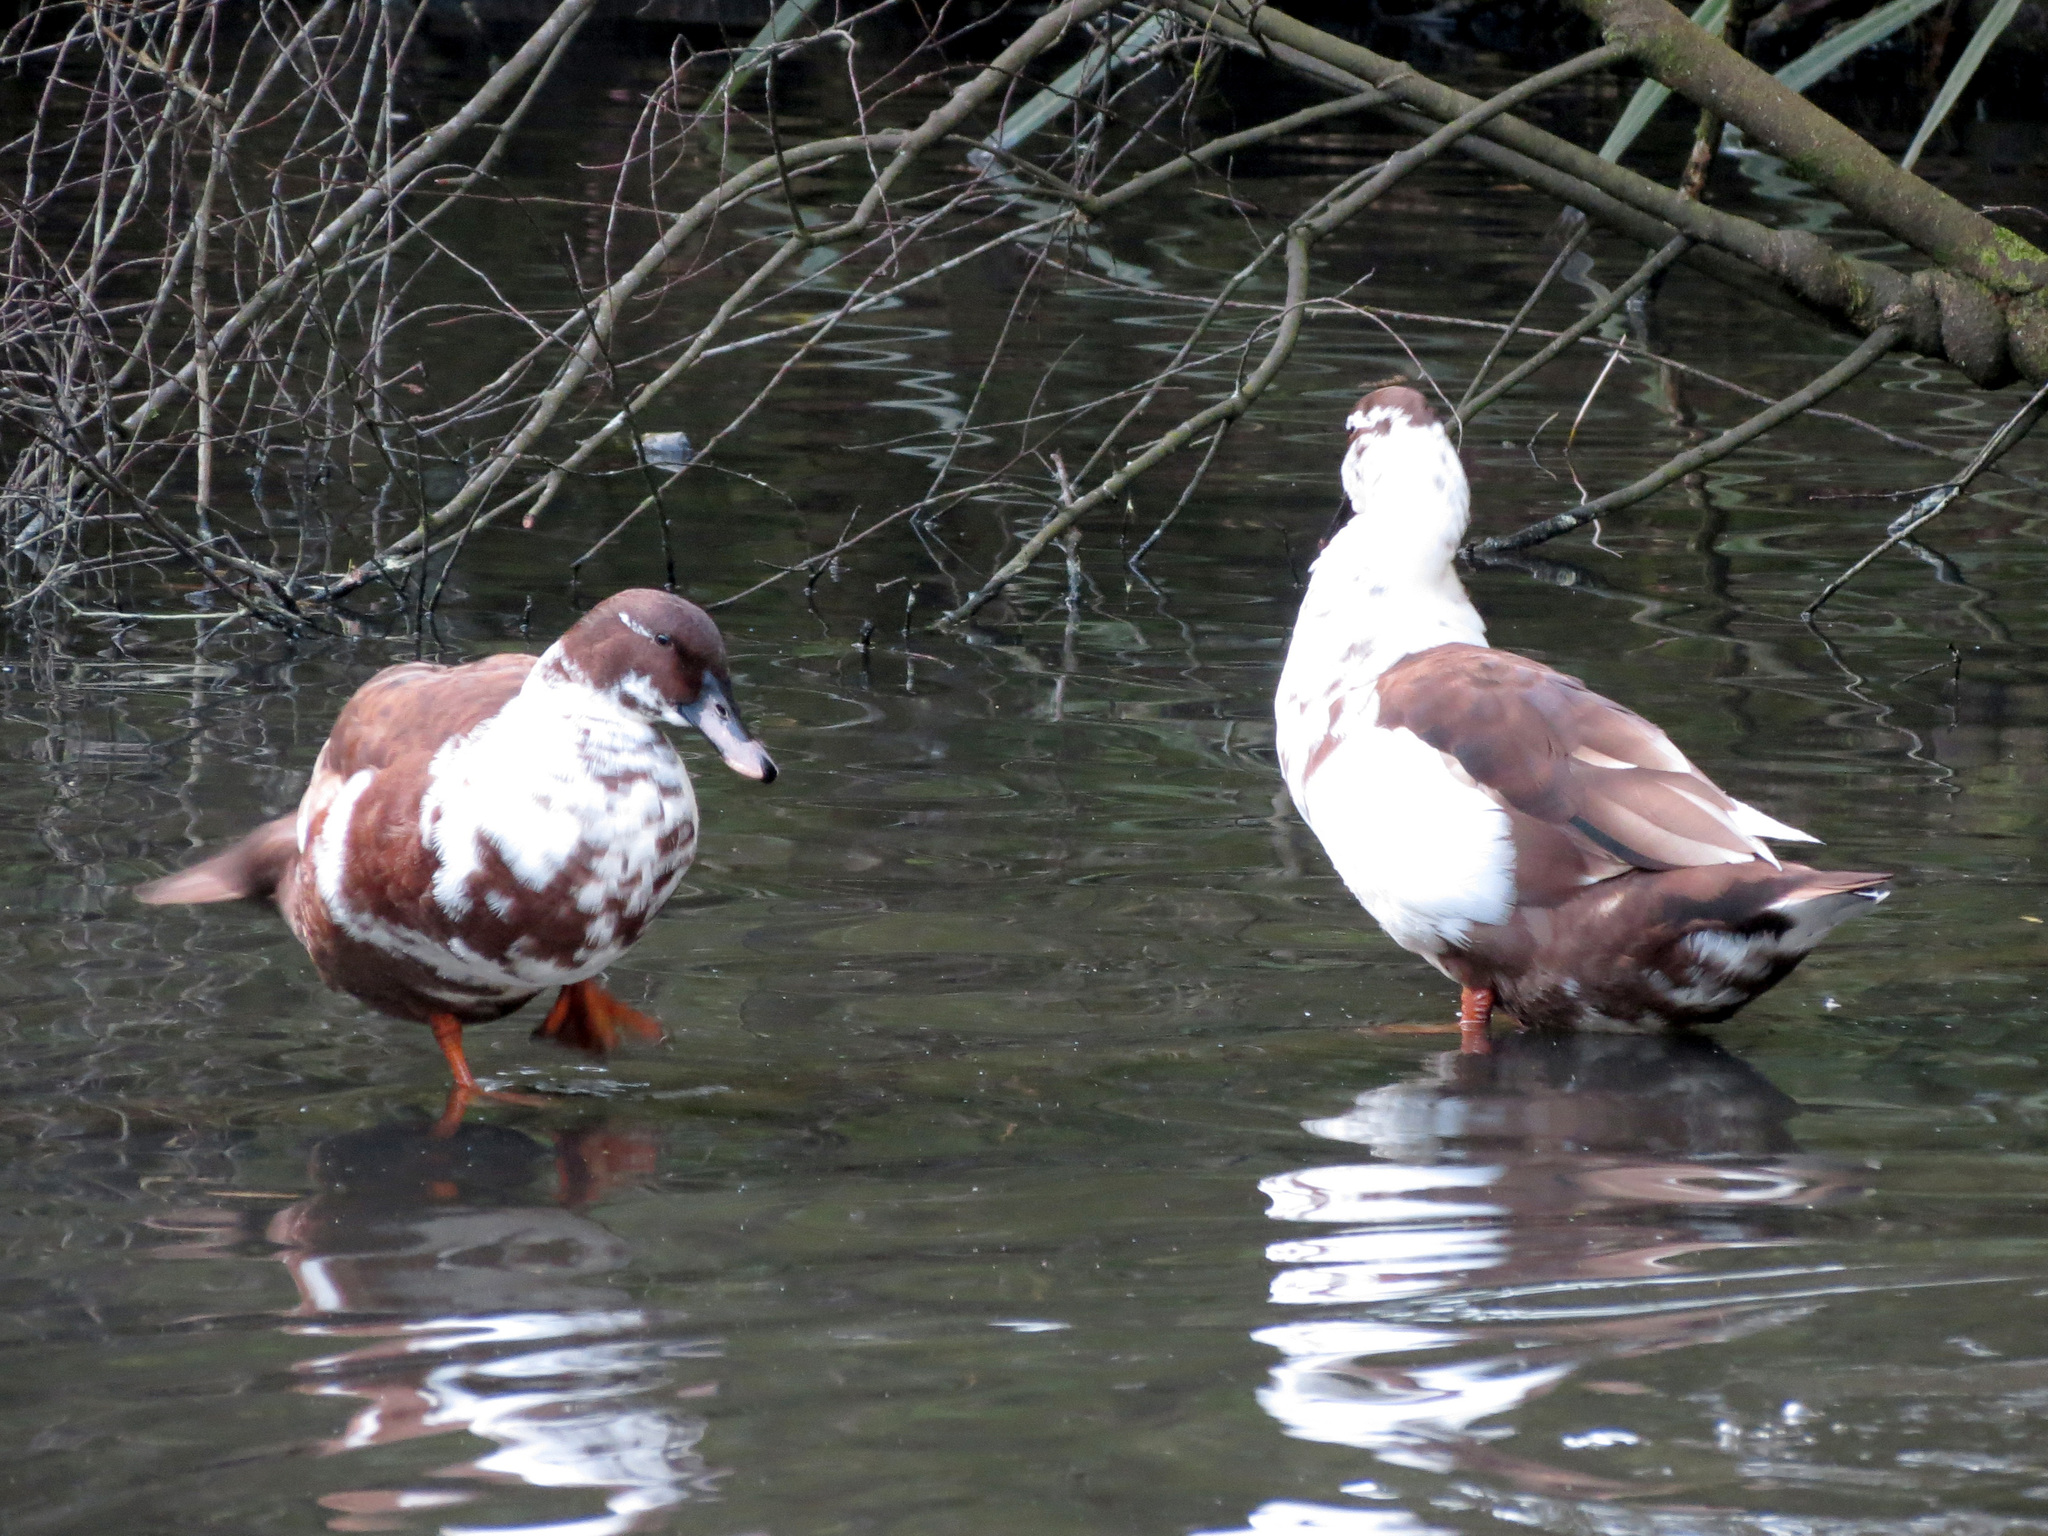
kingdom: Animalia
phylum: Chordata
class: Aves
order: Anseriformes
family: Anatidae
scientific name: Anatidae
